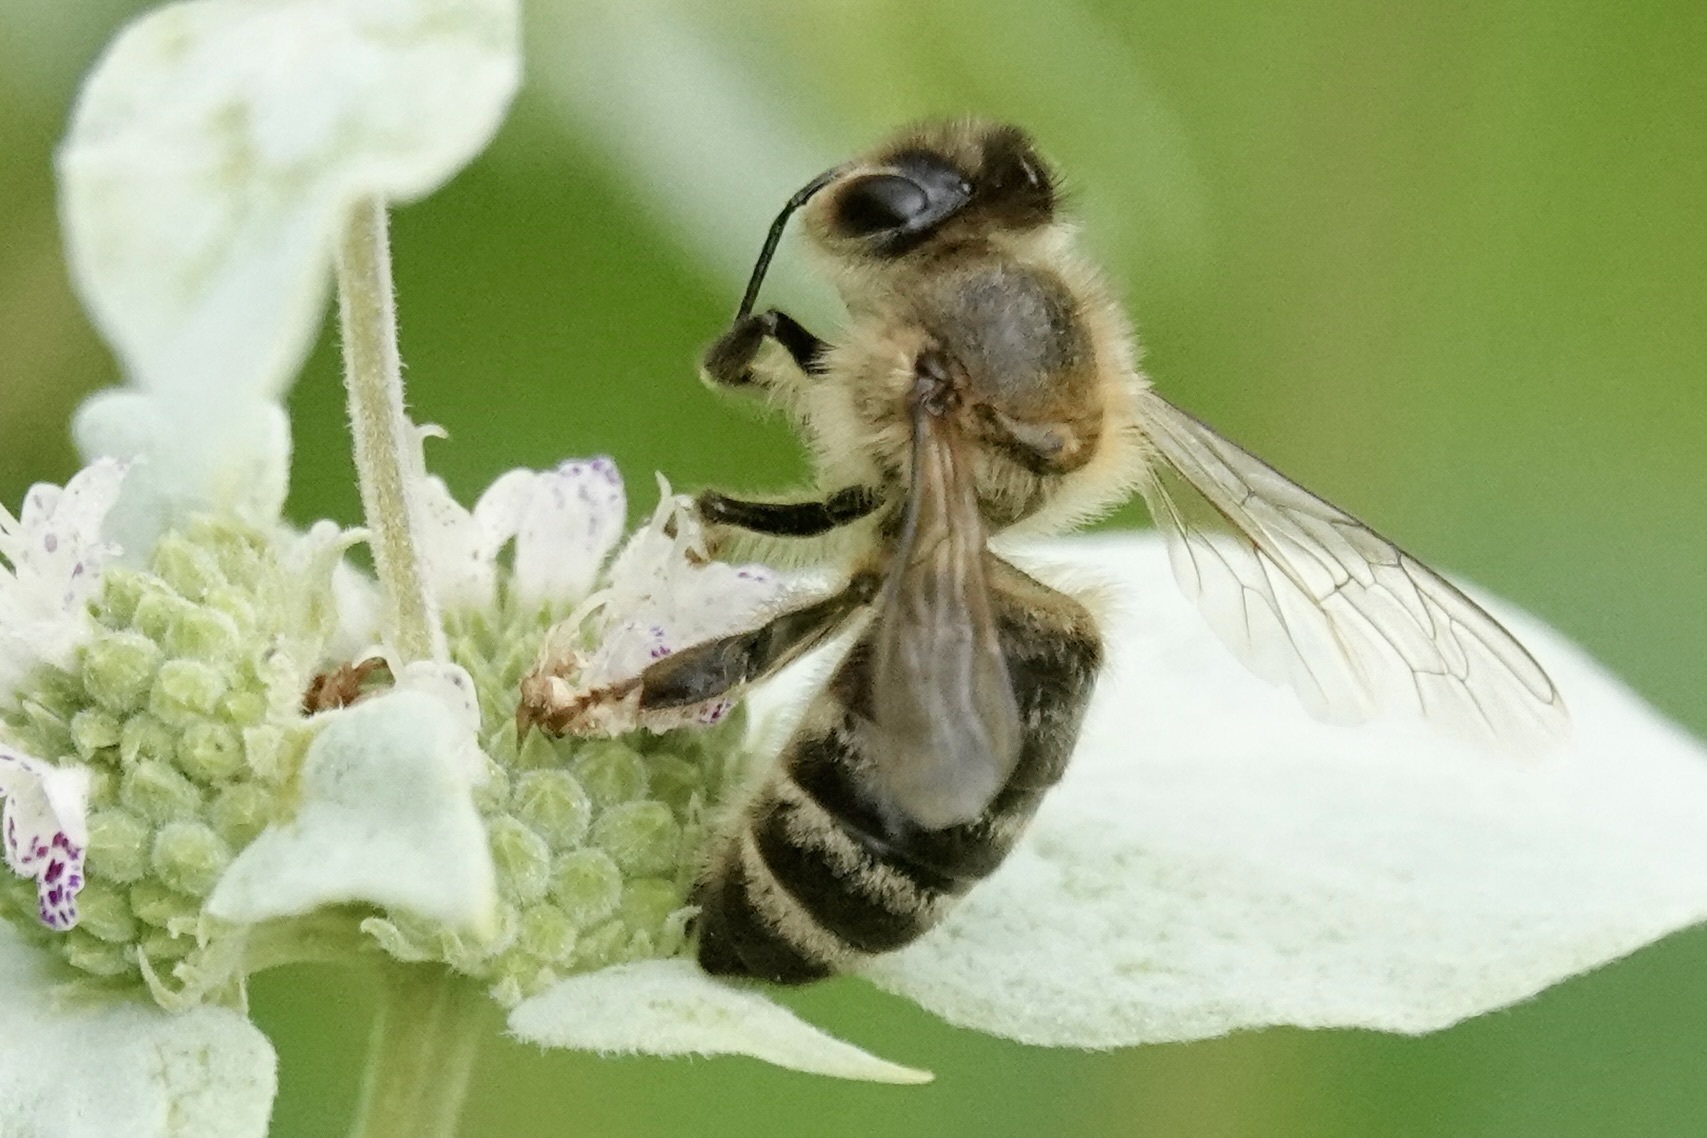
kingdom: Animalia
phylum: Arthropoda
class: Insecta
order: Hymenoptera
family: Apidae
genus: Apis
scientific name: Apis mellifera
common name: Honey bee
